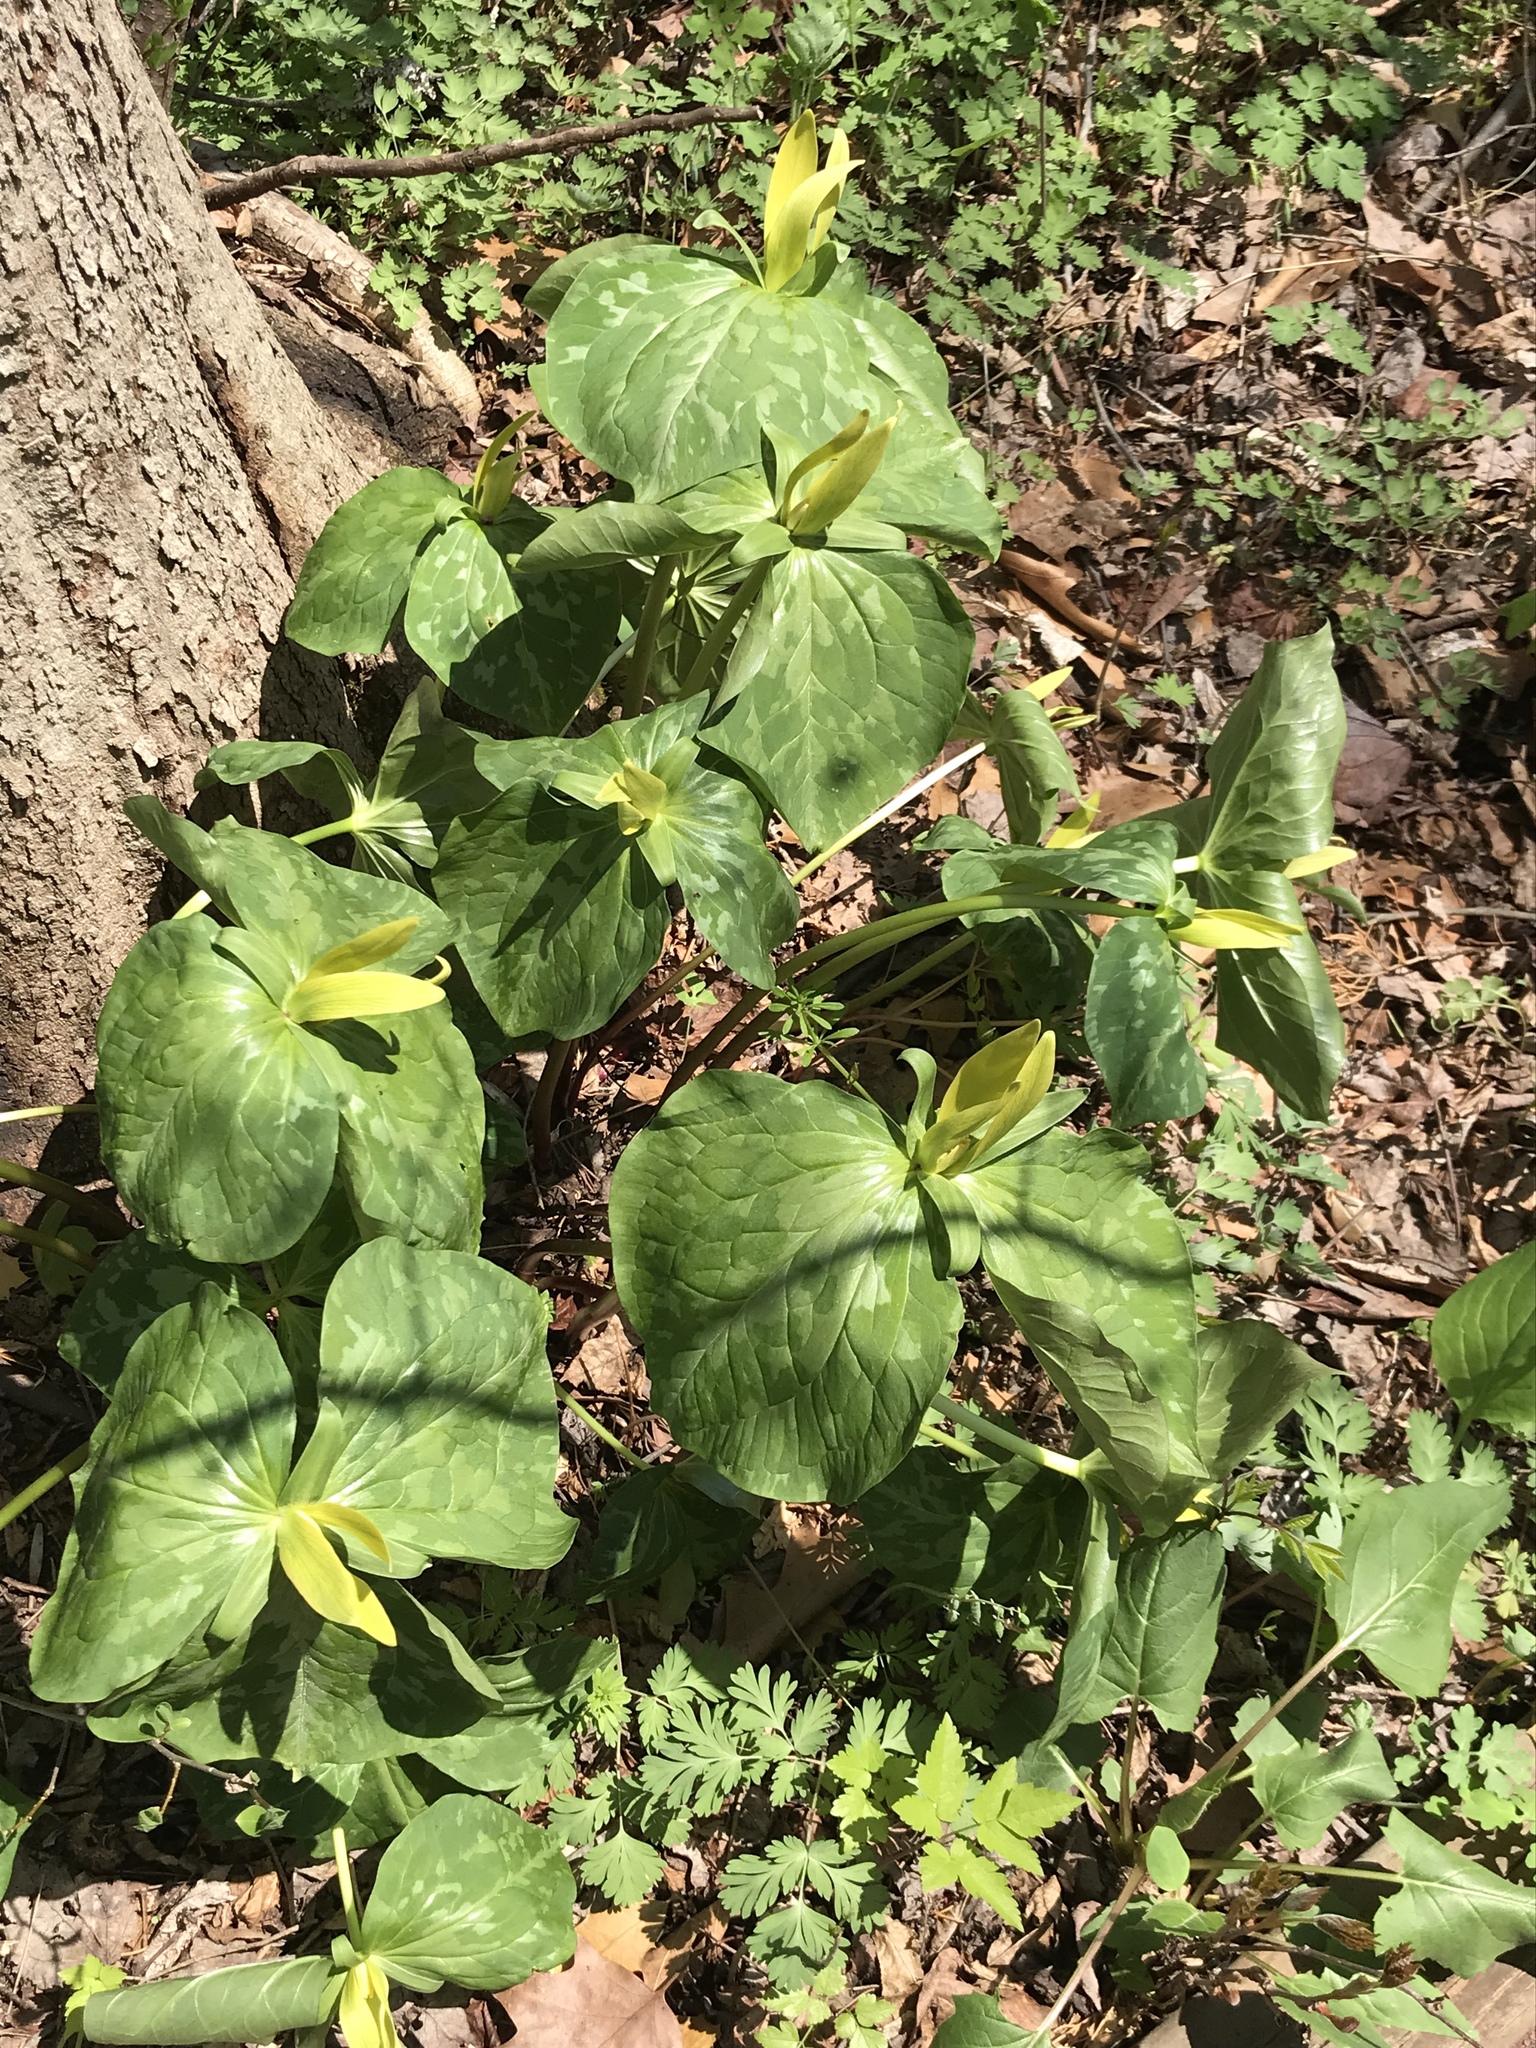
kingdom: Plantae
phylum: Tracheophyta
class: Liliopsida
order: Liliales
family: Melanthiaceae
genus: Trillium
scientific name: Trillium luteum
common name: Wax trillium
